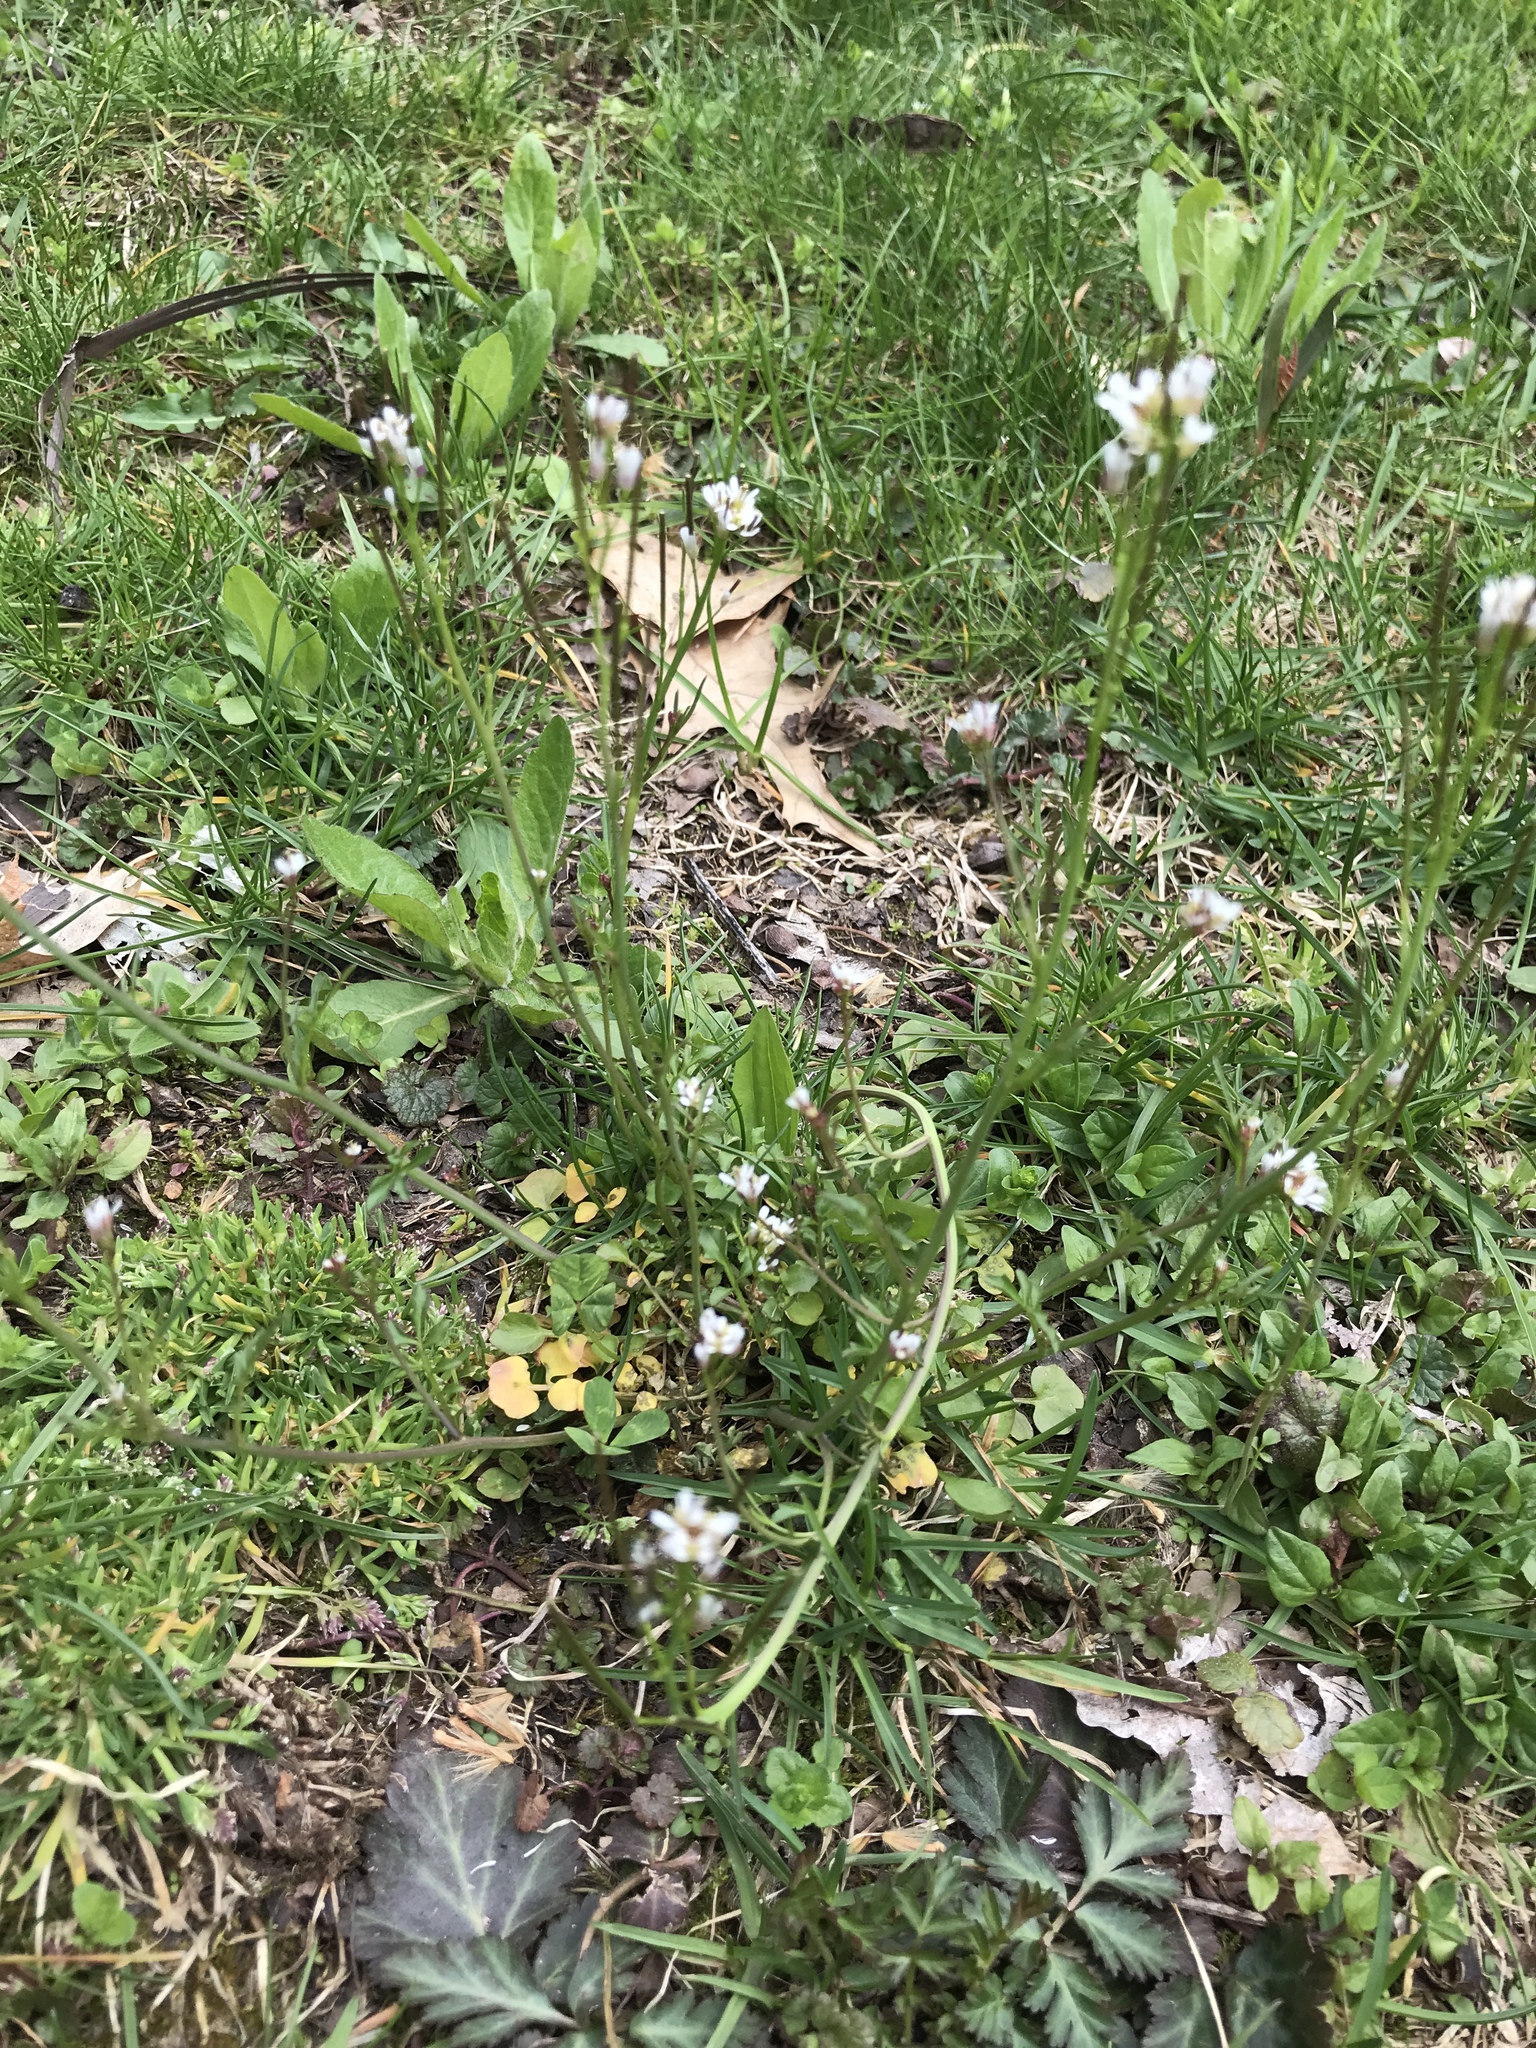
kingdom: Plantae
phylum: Tracheophyta
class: Magnoliopsida
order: Brassicales
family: Brassicaceae
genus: Cardamine
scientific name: Cardamine hirsuta
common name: Hairy bittercress
